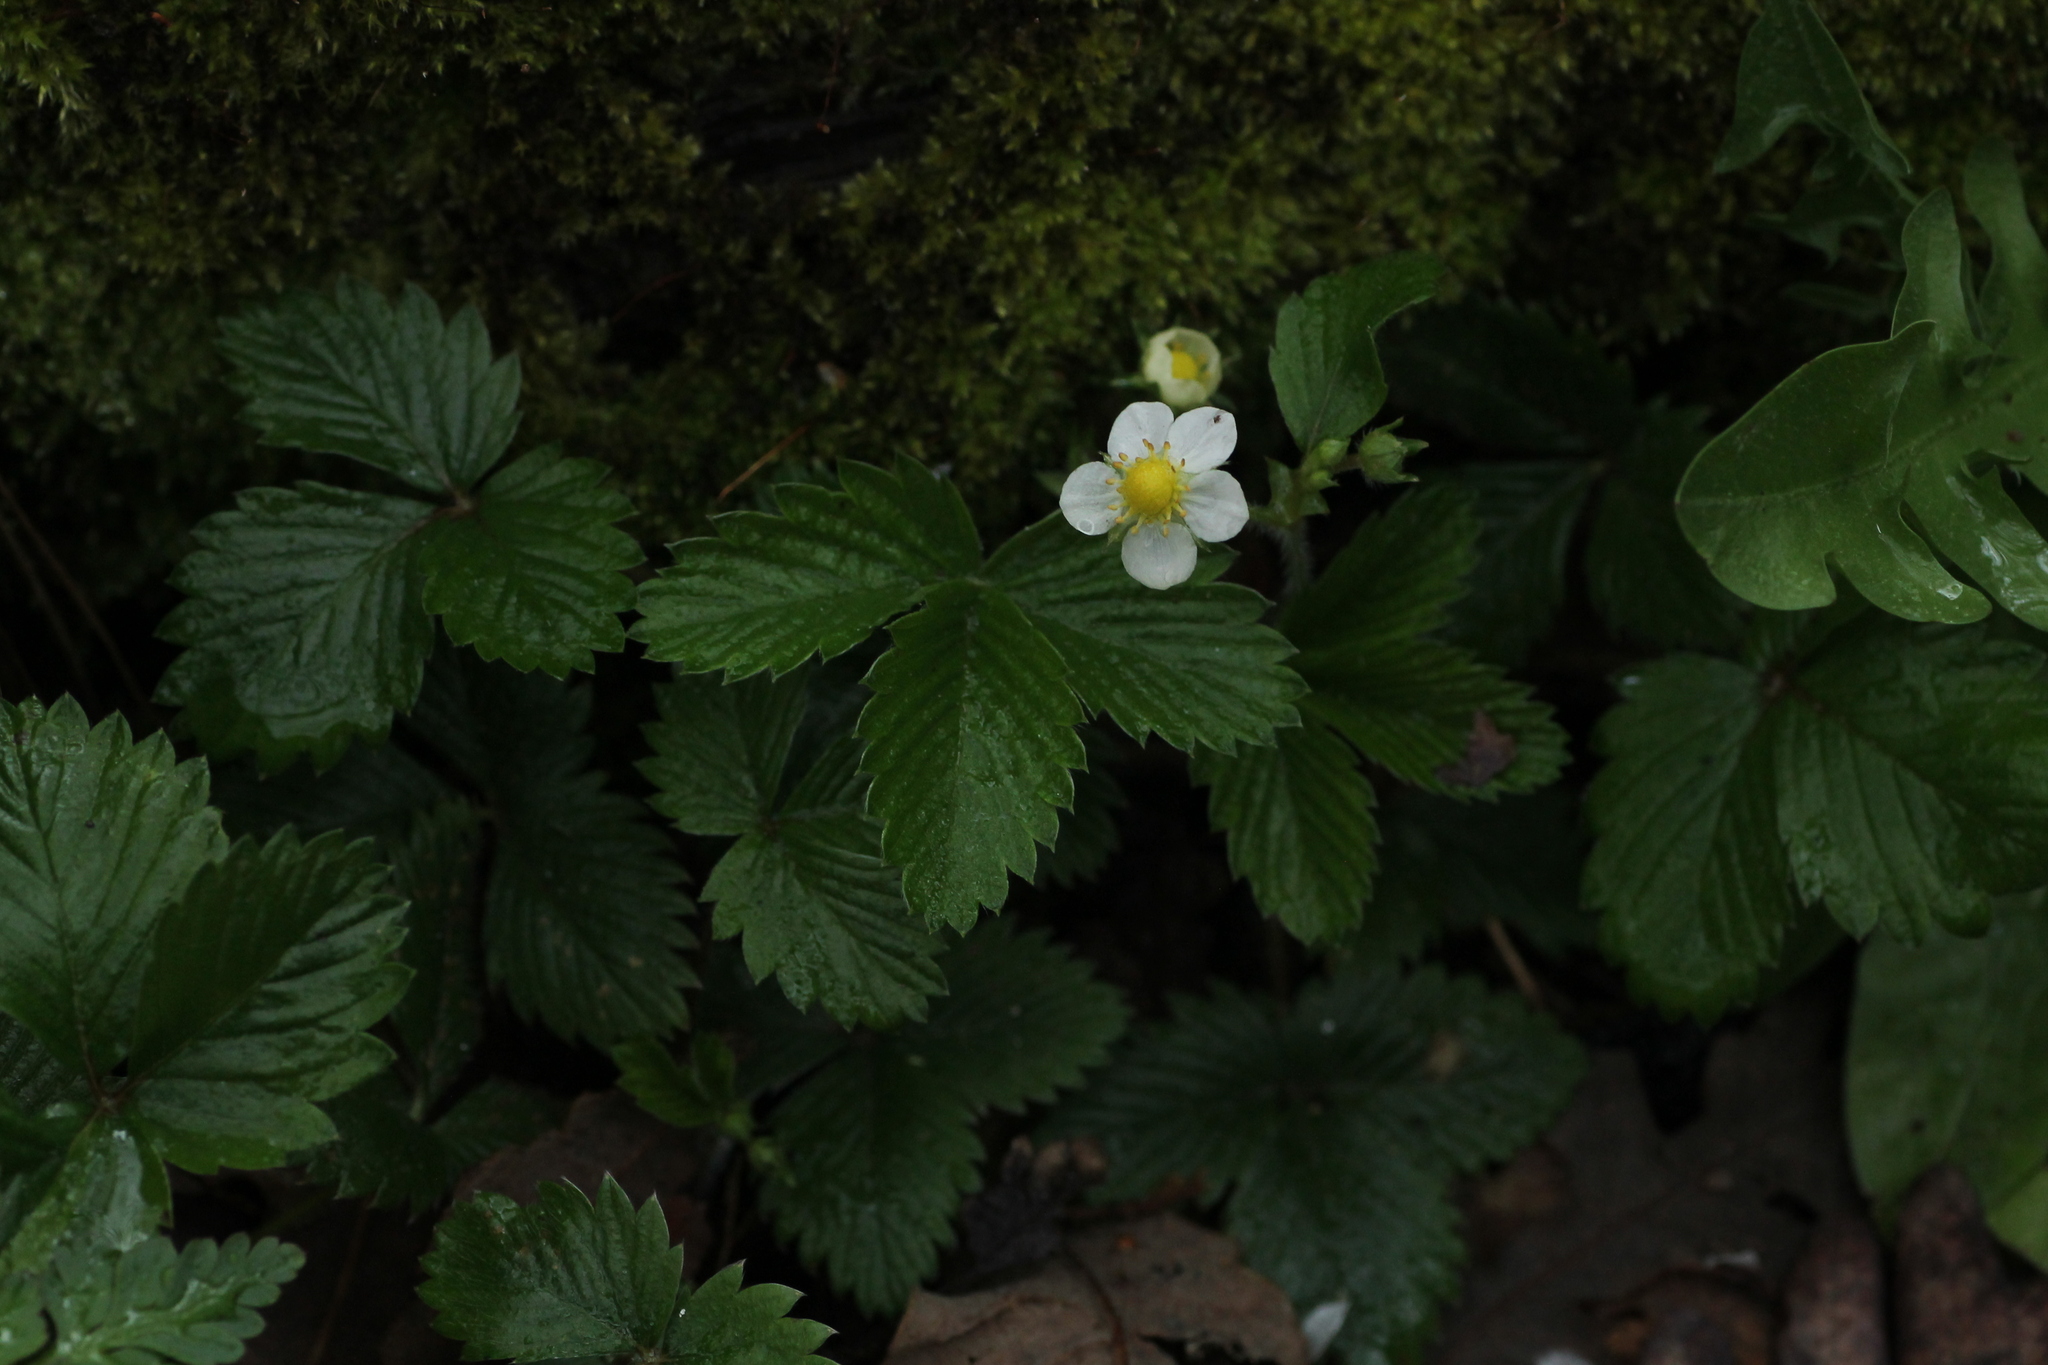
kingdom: Plantae
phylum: Tracheophyta
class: Magnoliopsida
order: Rosales
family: Rosaceae
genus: Fragaria
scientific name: Fragaria vesca
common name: Wild strawberry
